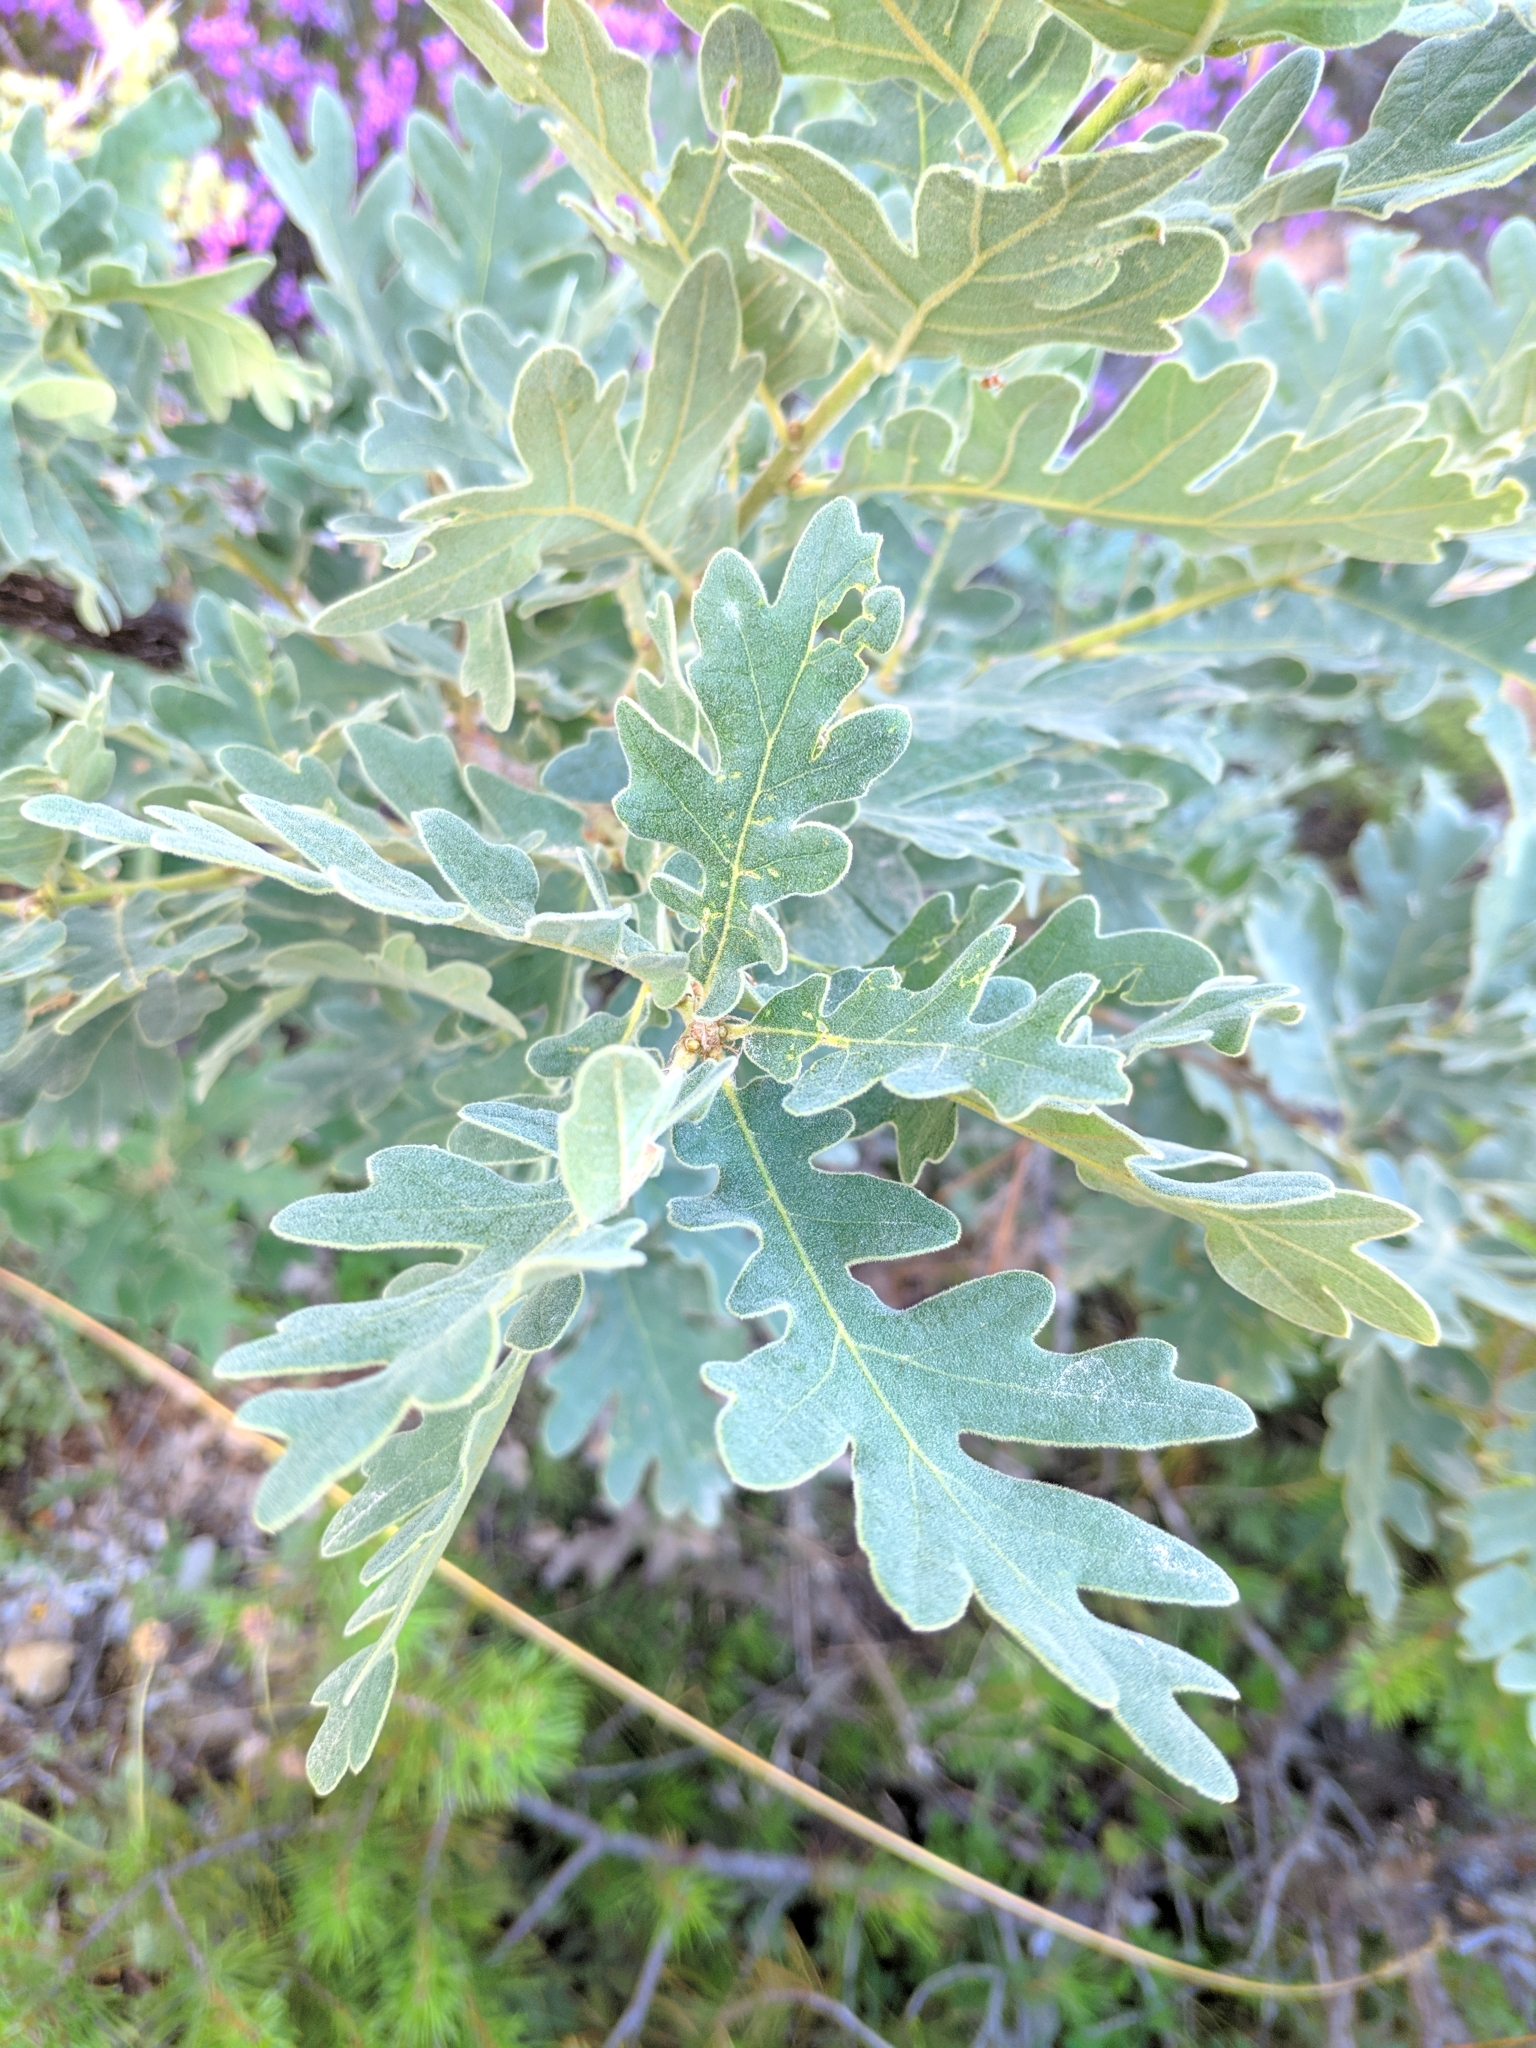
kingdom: Plantae
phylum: Tracheophyta
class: Magnoliopsida
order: Fagales
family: Fagaceae
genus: Quercus
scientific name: Quercus pyrenaica
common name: Pyrenean oak
